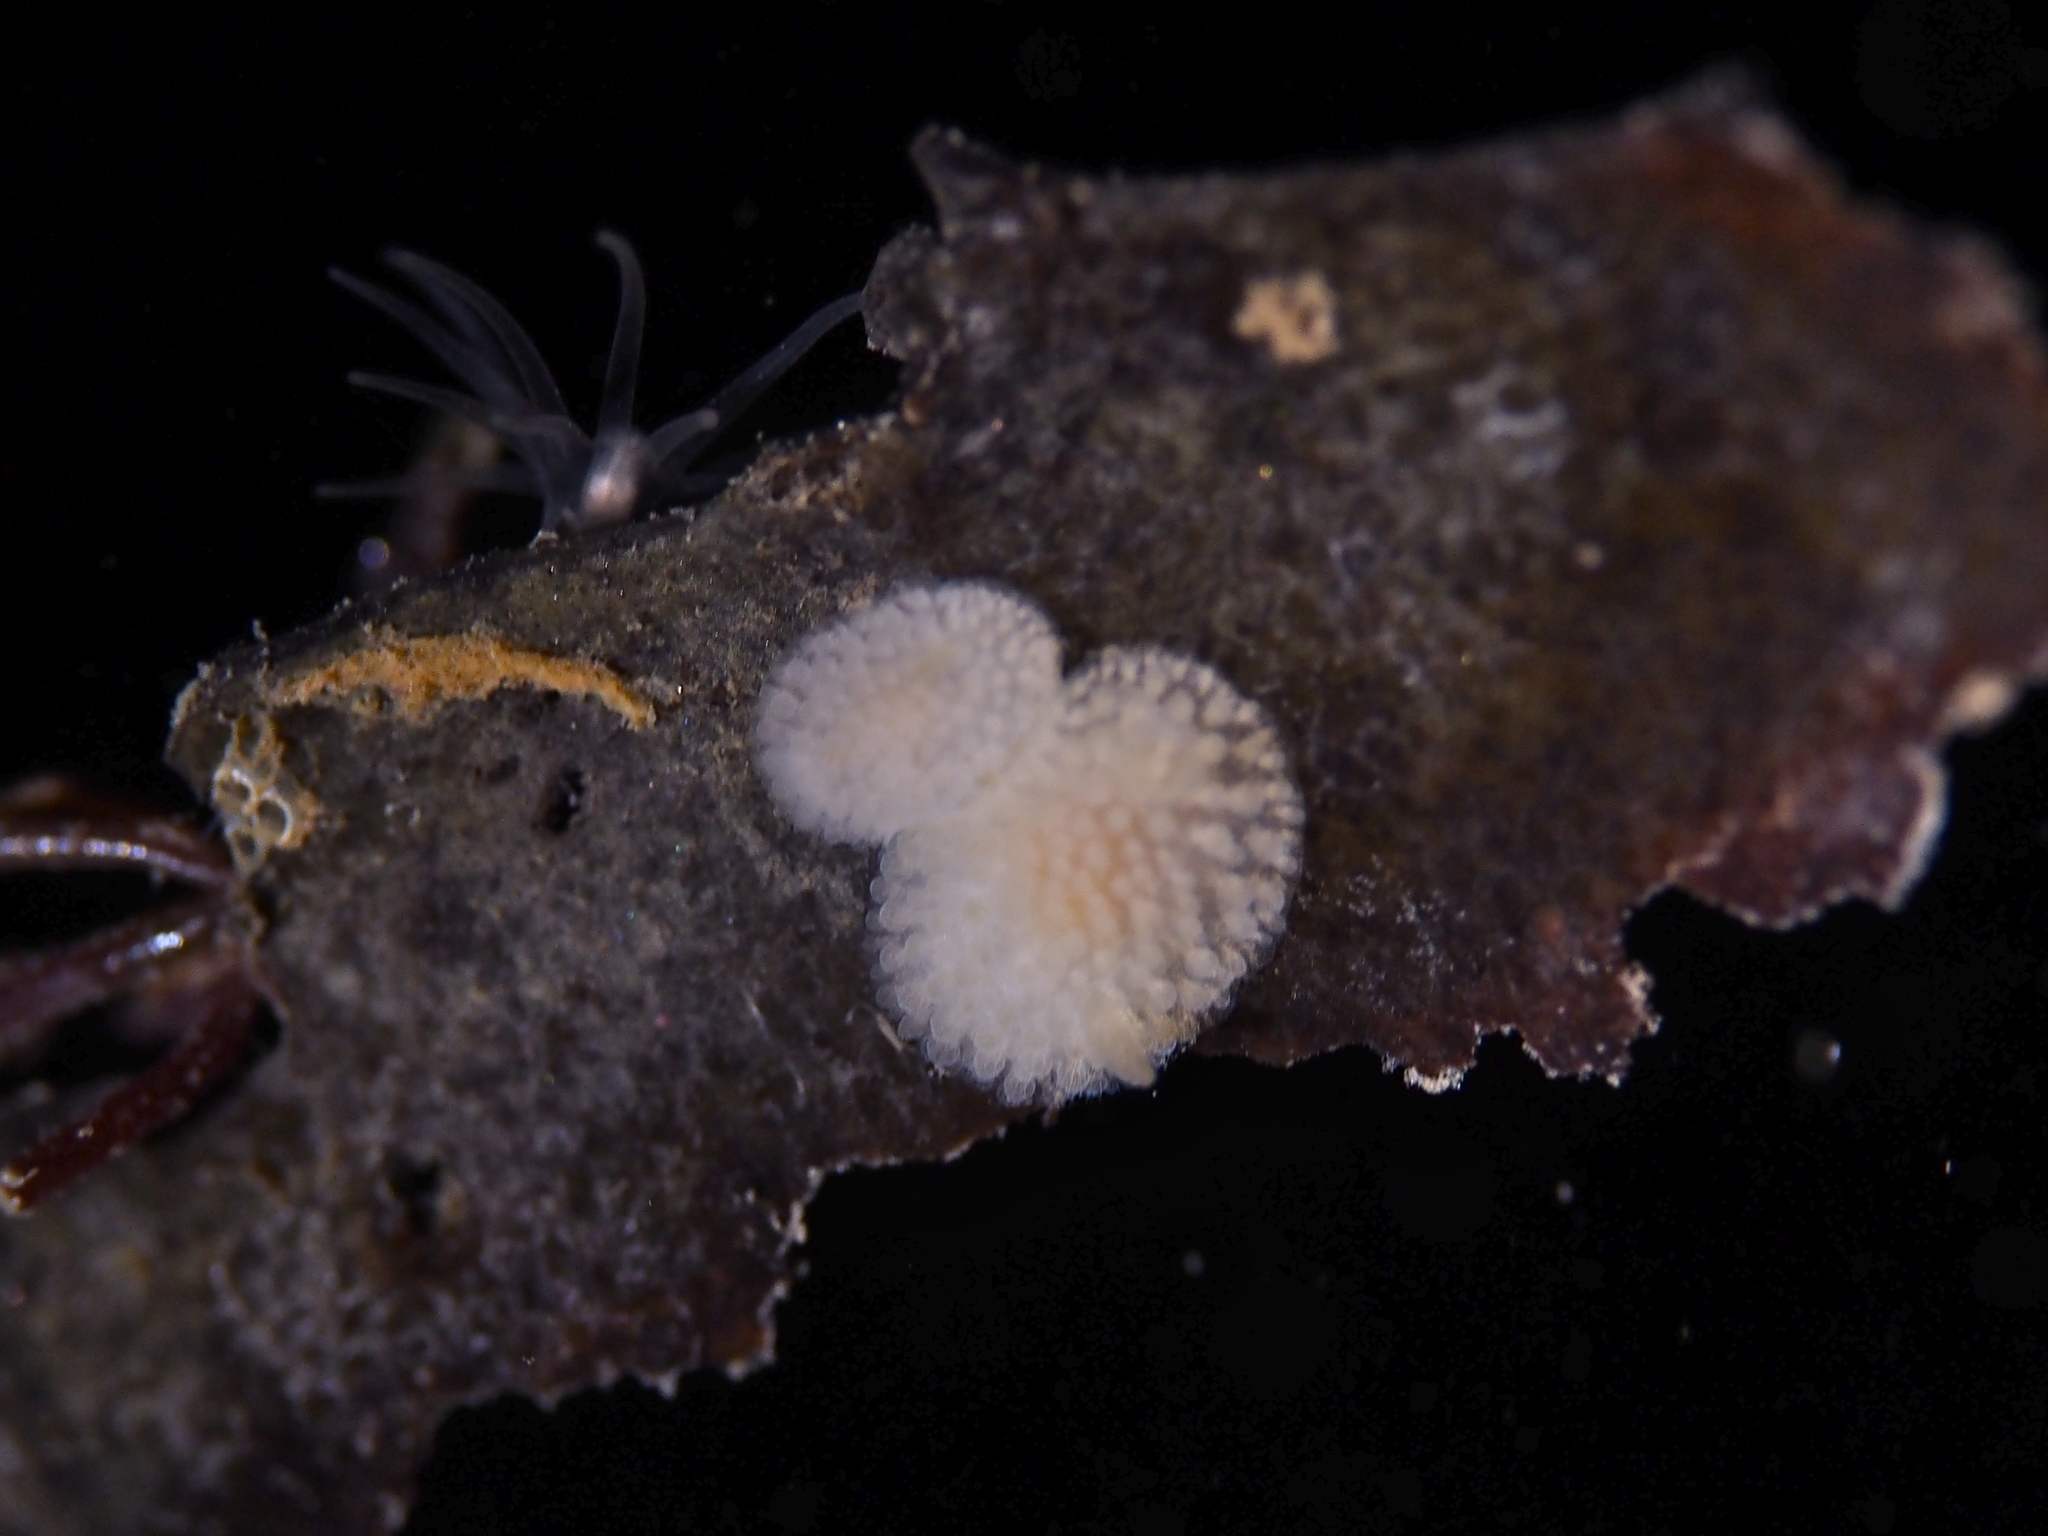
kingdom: Animalia
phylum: Mollusca
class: Gastropoda
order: Nudibranchia
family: Onchidorididae
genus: Onchidoris
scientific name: Onchidoris muricata
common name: Rough doris
